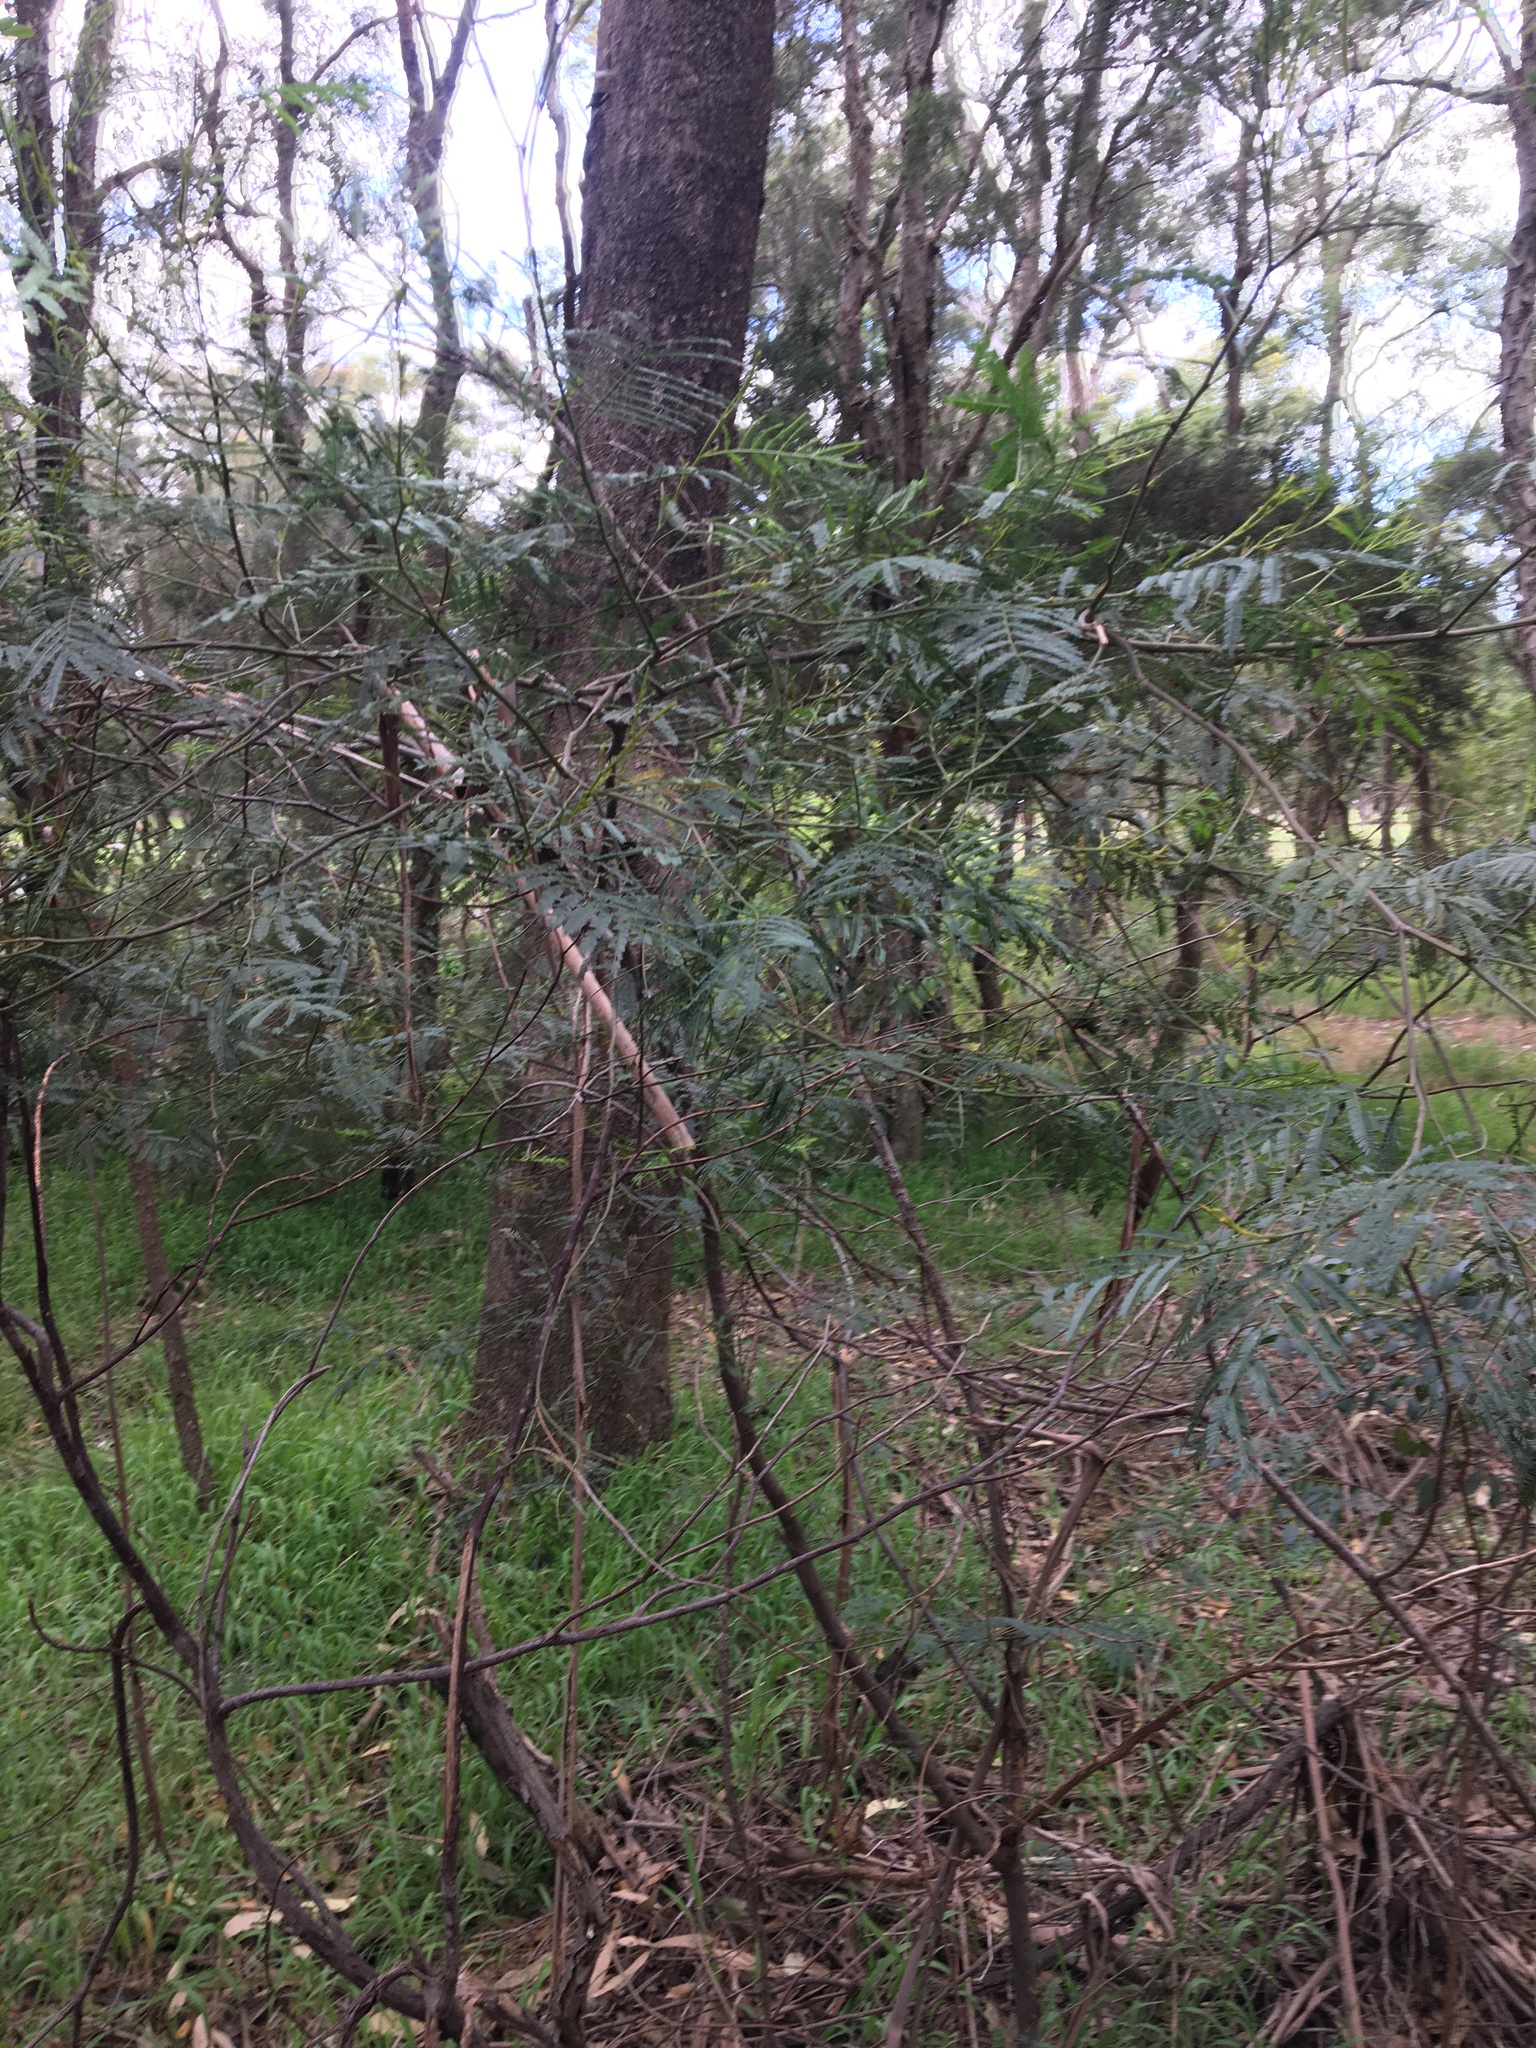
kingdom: Plantae
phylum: Tracheophyta
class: Magnoliopsida
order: Fabales
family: Fabaceae
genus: Acacia
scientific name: Acacia parramattensis
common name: Sydney green wattle
